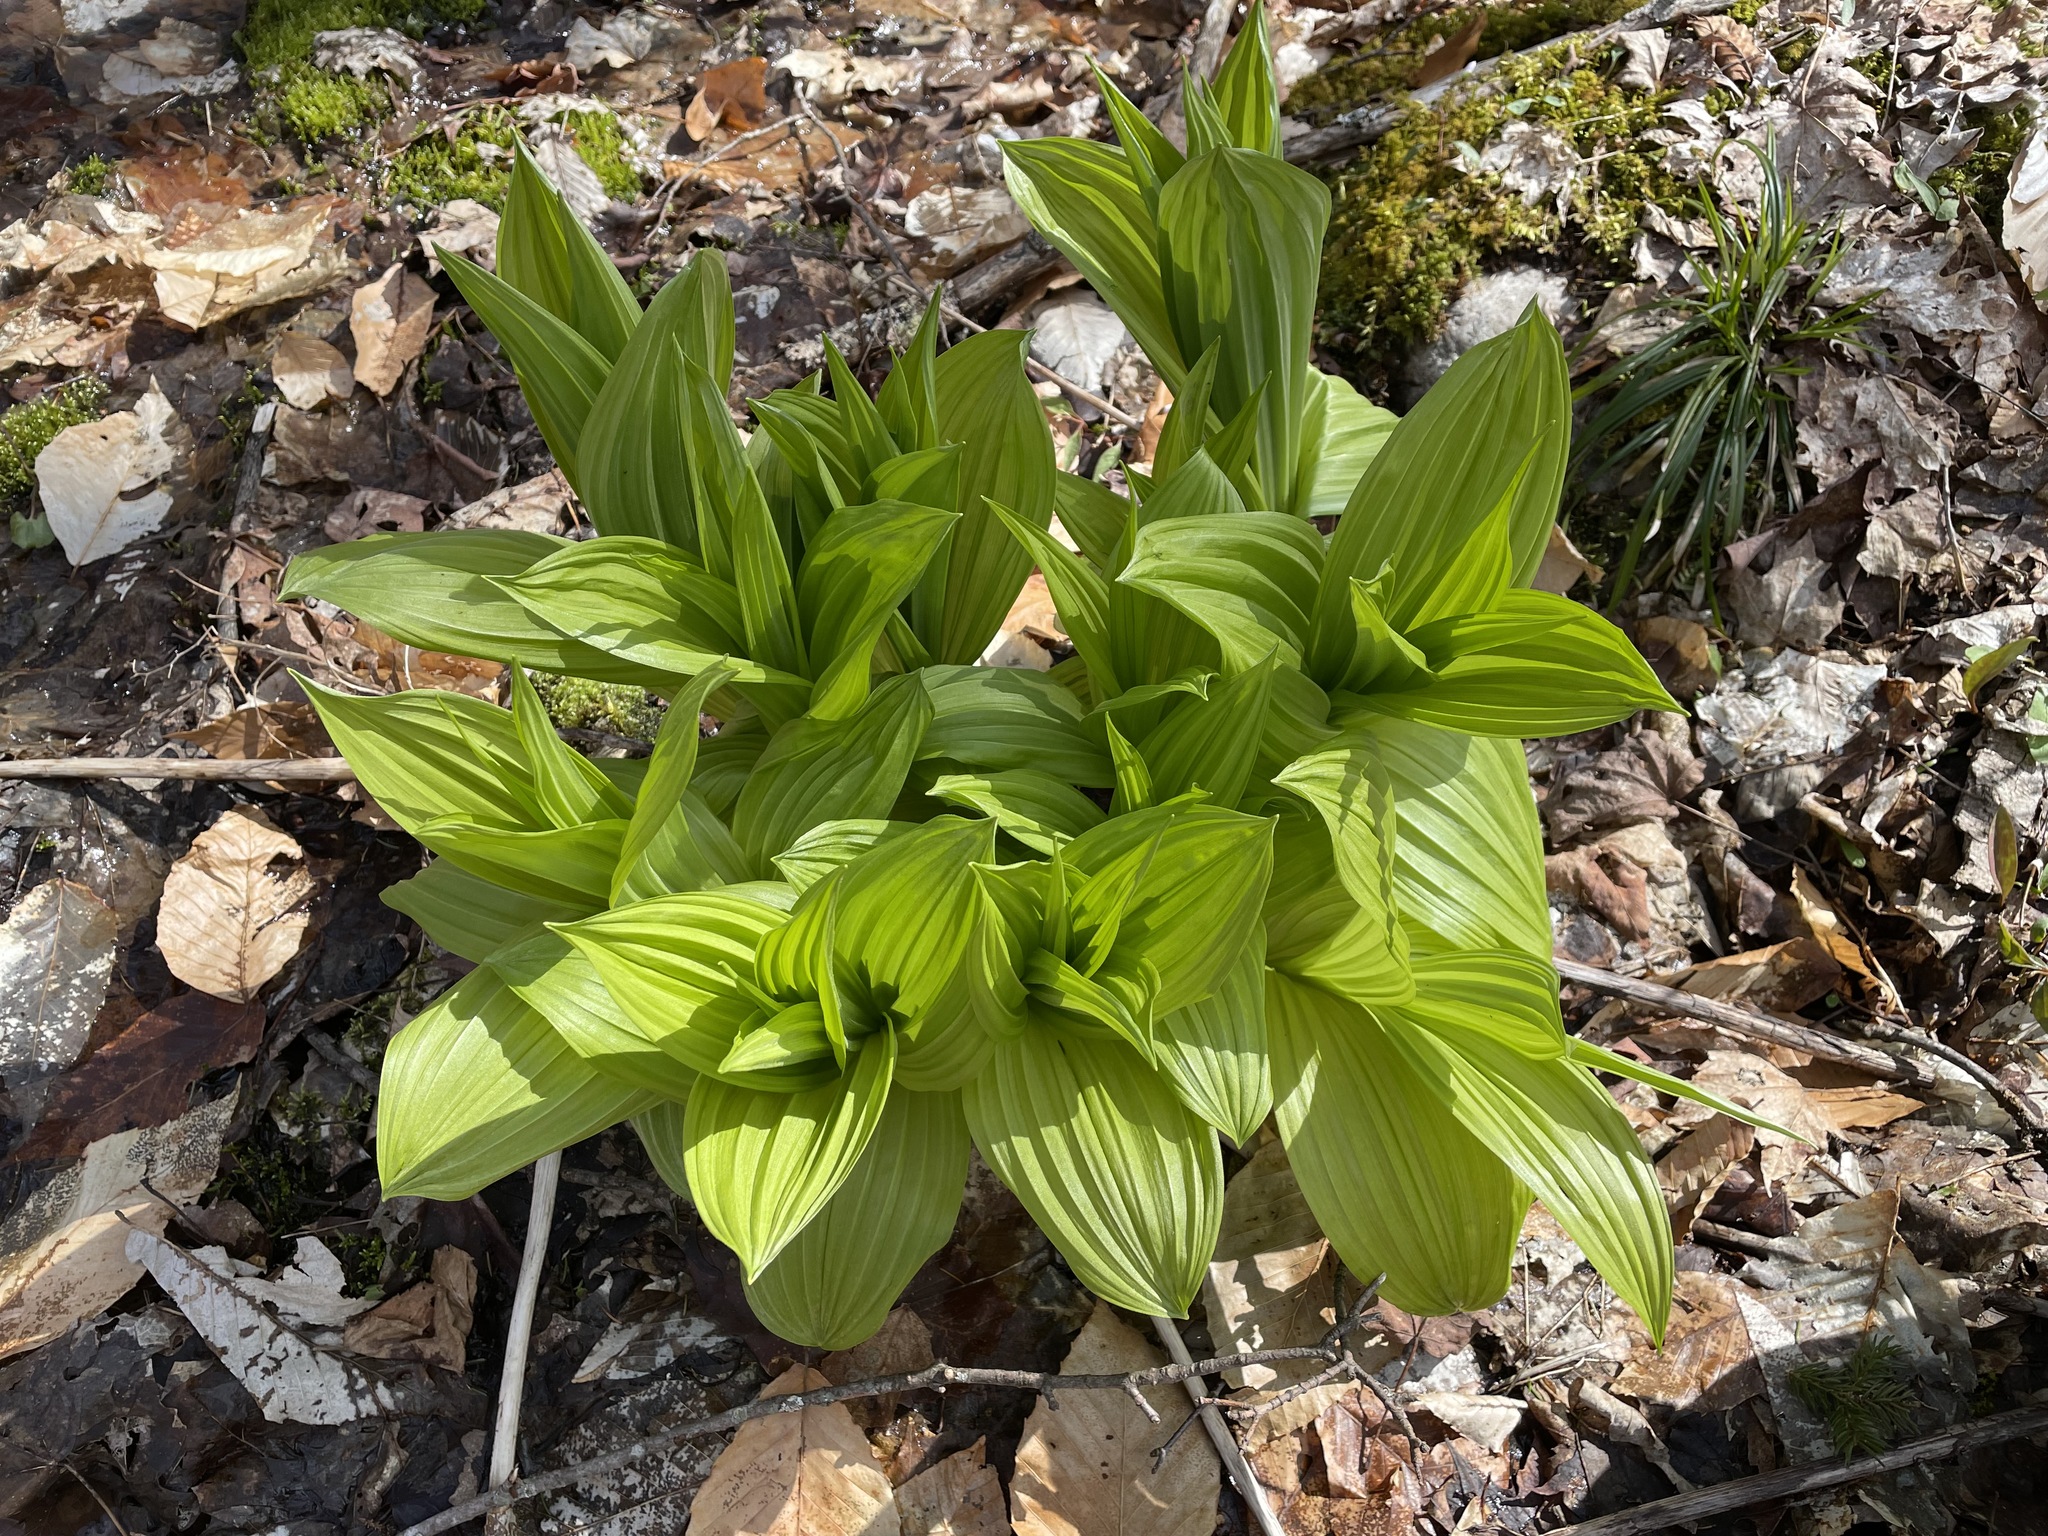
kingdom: Plantae
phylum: Tracheophyta
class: Liliopsida
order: Liliales
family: Melanthiaceae
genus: Veratrum
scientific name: Veratrum viride
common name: American false hellebore
